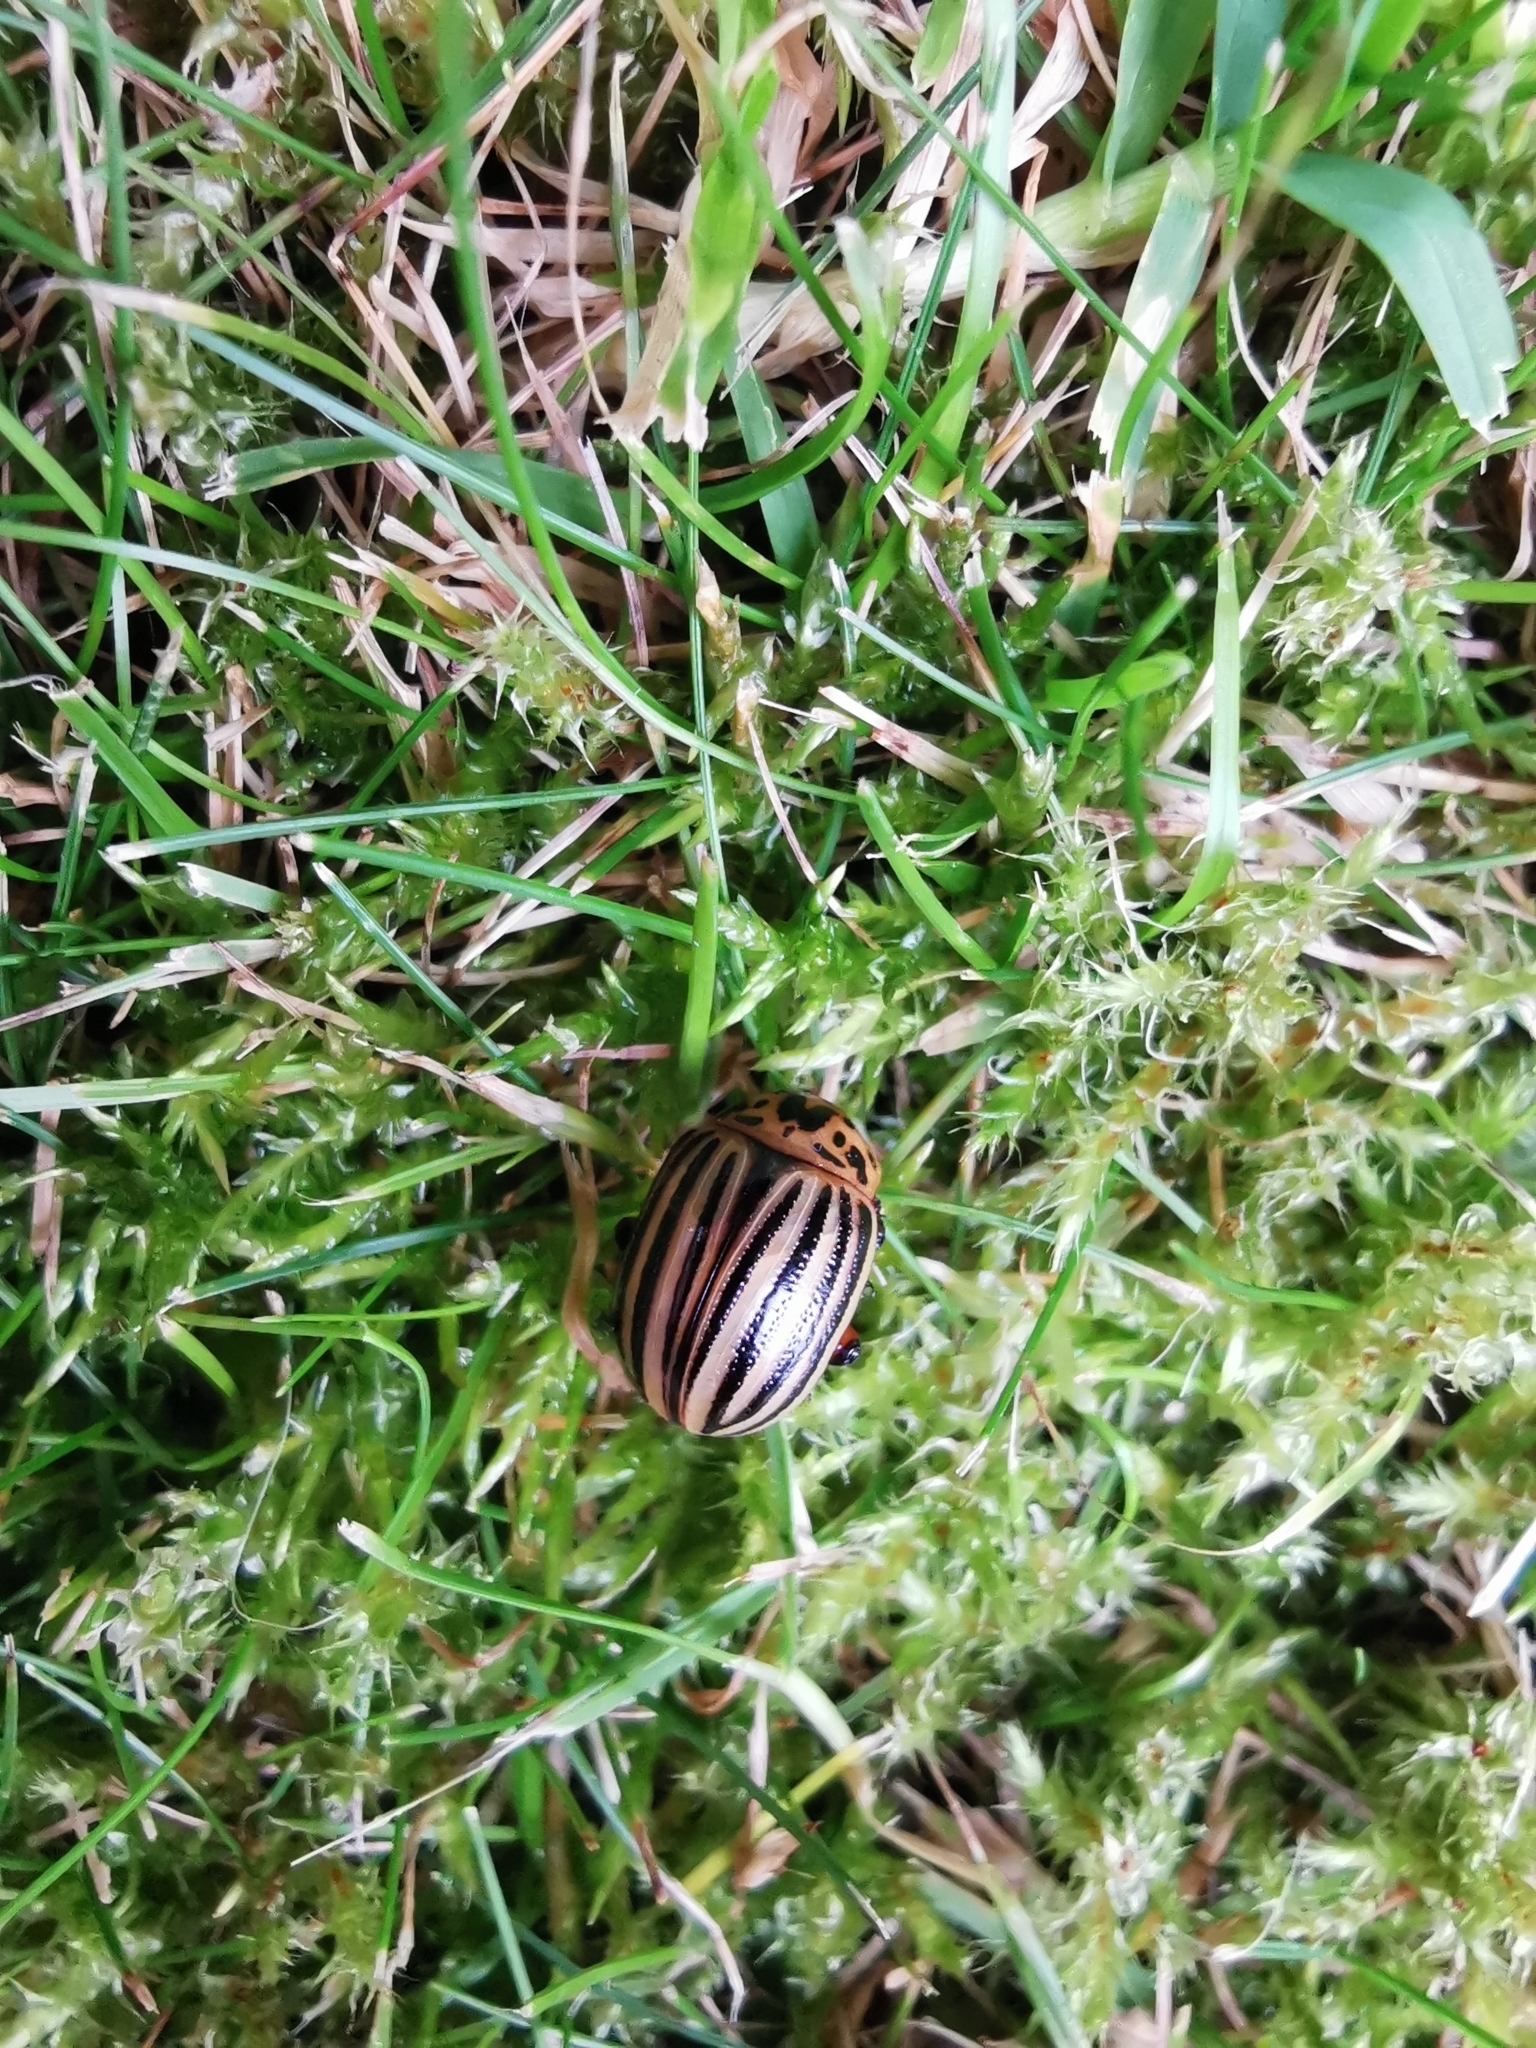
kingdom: Animalia
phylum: Arthropoda
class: Insecta
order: Coleoptera
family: Chrysomelidae
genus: Leptinotarsa
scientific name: Leptinotarsa decemlineata
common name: Colorado potato beetle
